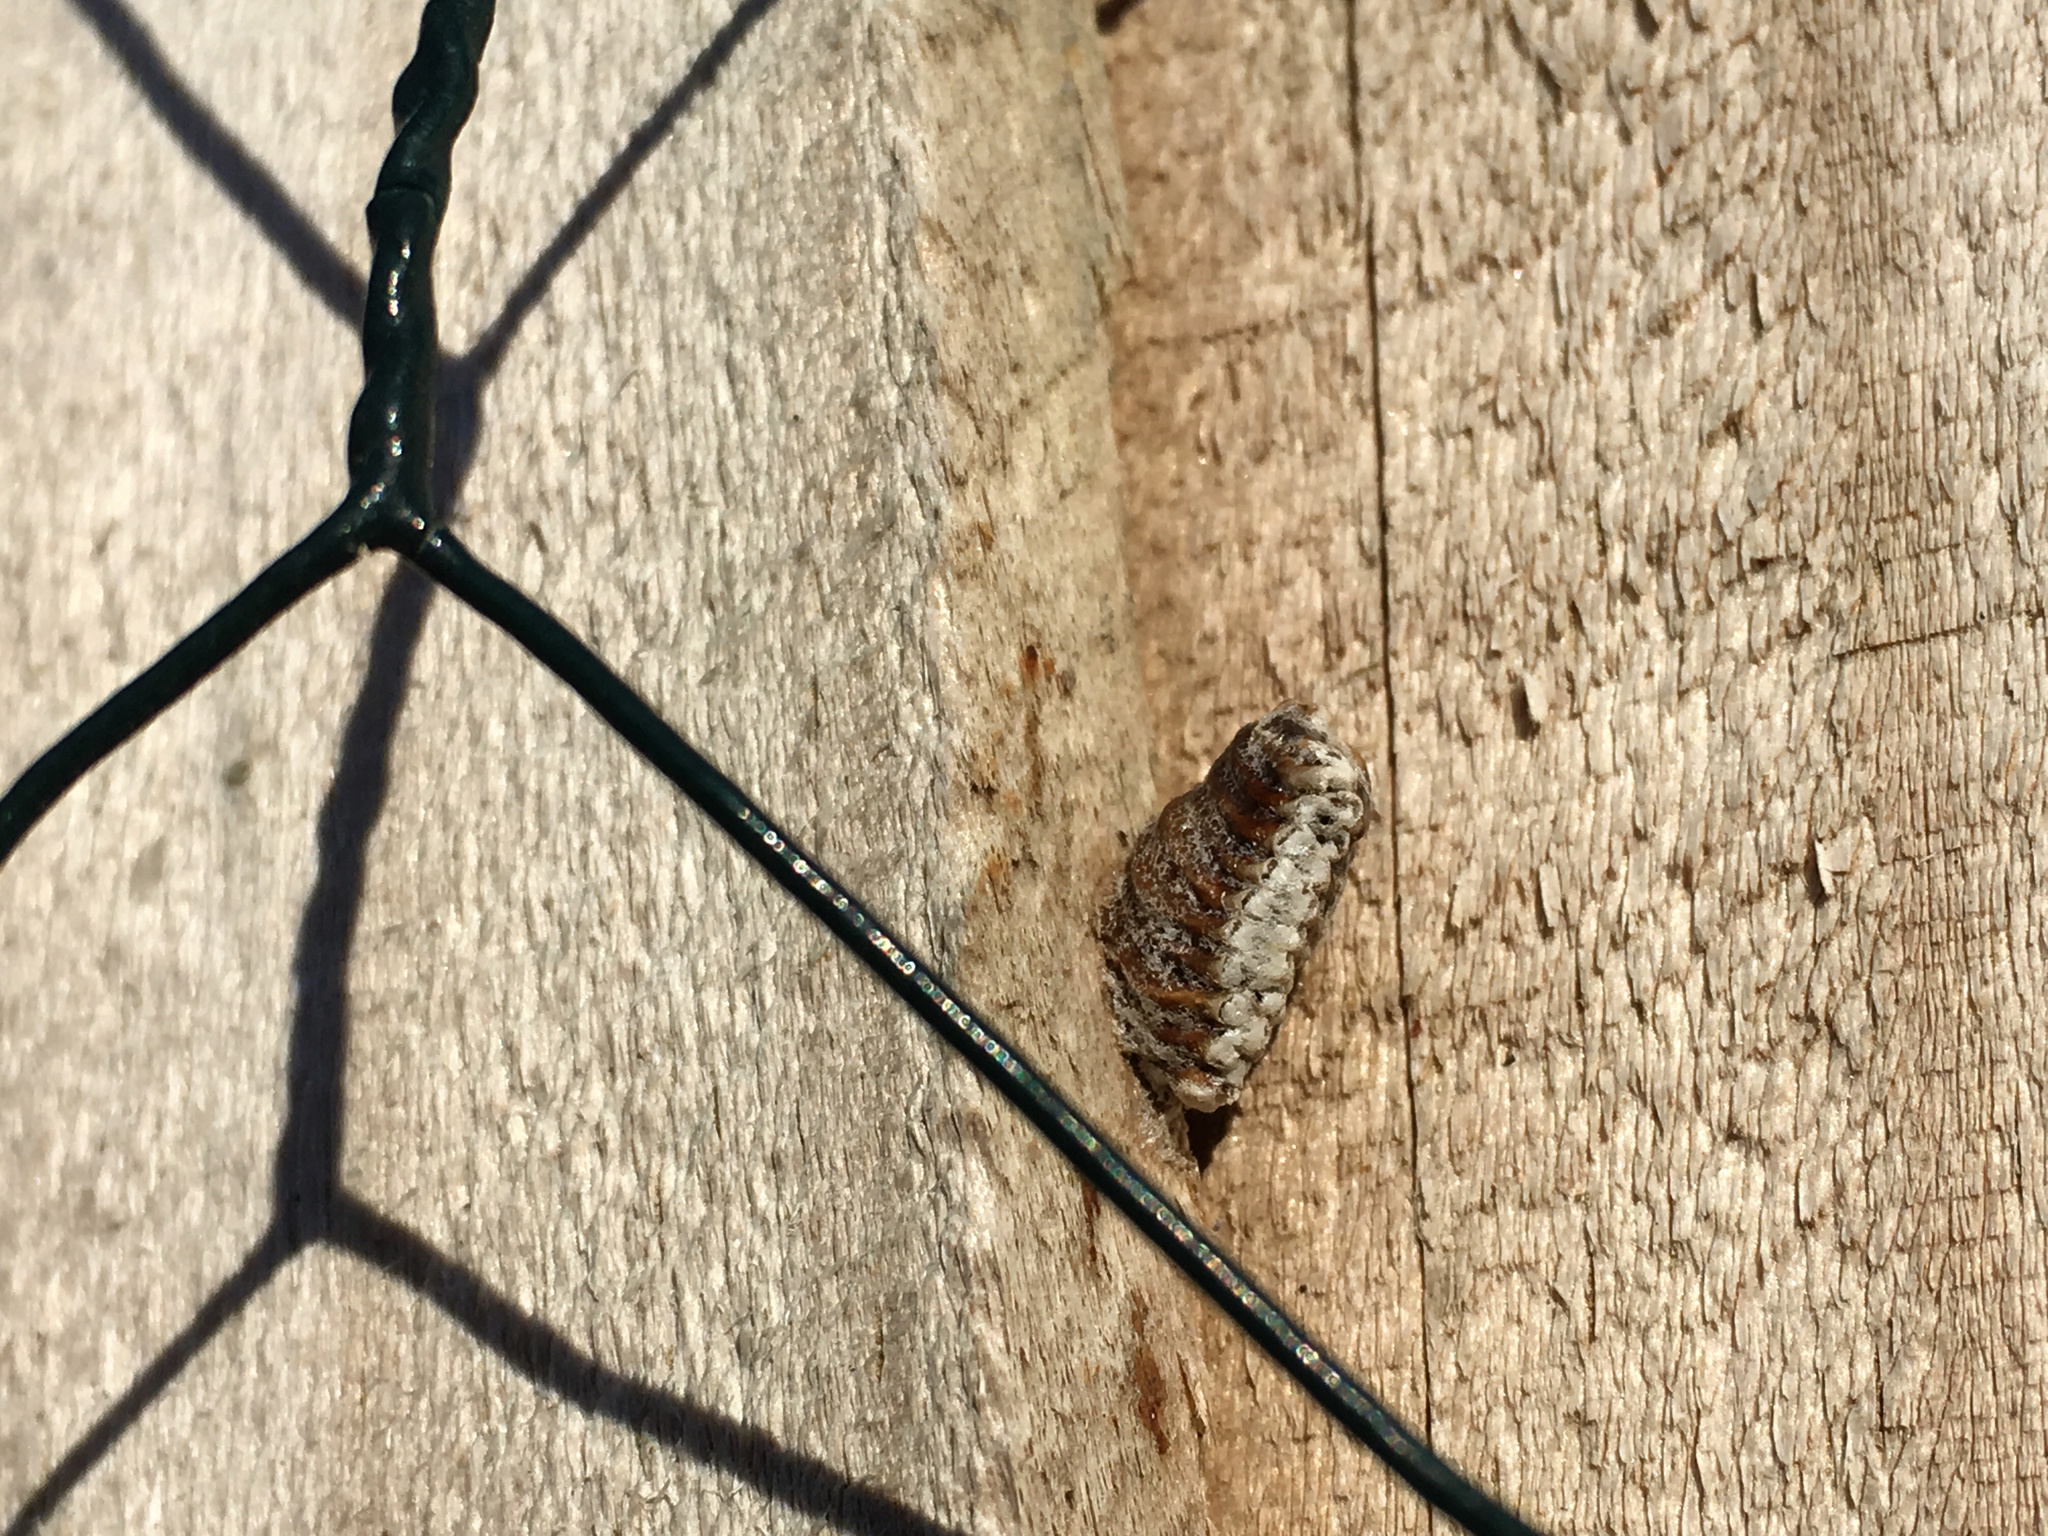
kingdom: Animalia
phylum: Arthropoda
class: Insecta
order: Mantodea
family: Mantidae
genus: Orthodera
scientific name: Orthodera novaezealandiae
